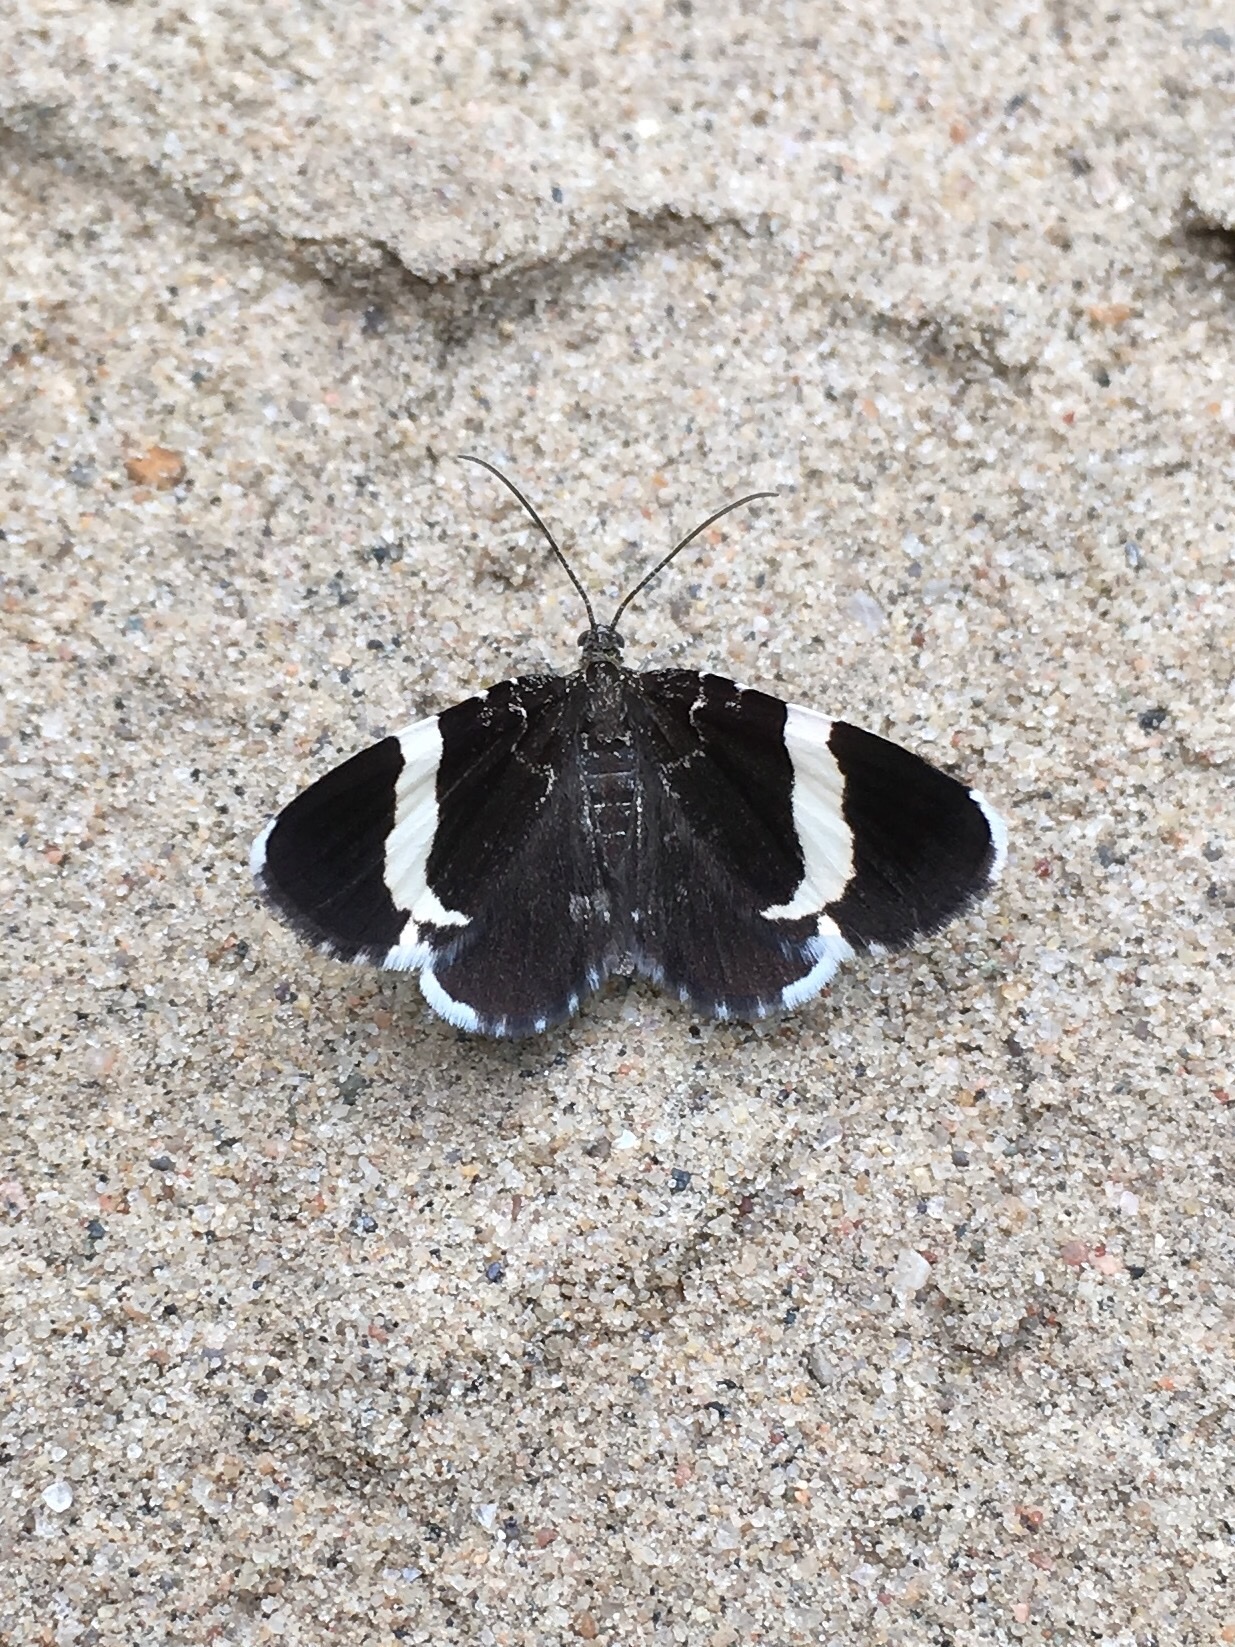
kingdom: Animalia
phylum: Arthropoda
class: Insecta
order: Lepidoptera
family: Geometridae
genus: Trichodezia
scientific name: Trichodezia albovittata
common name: White striped black
